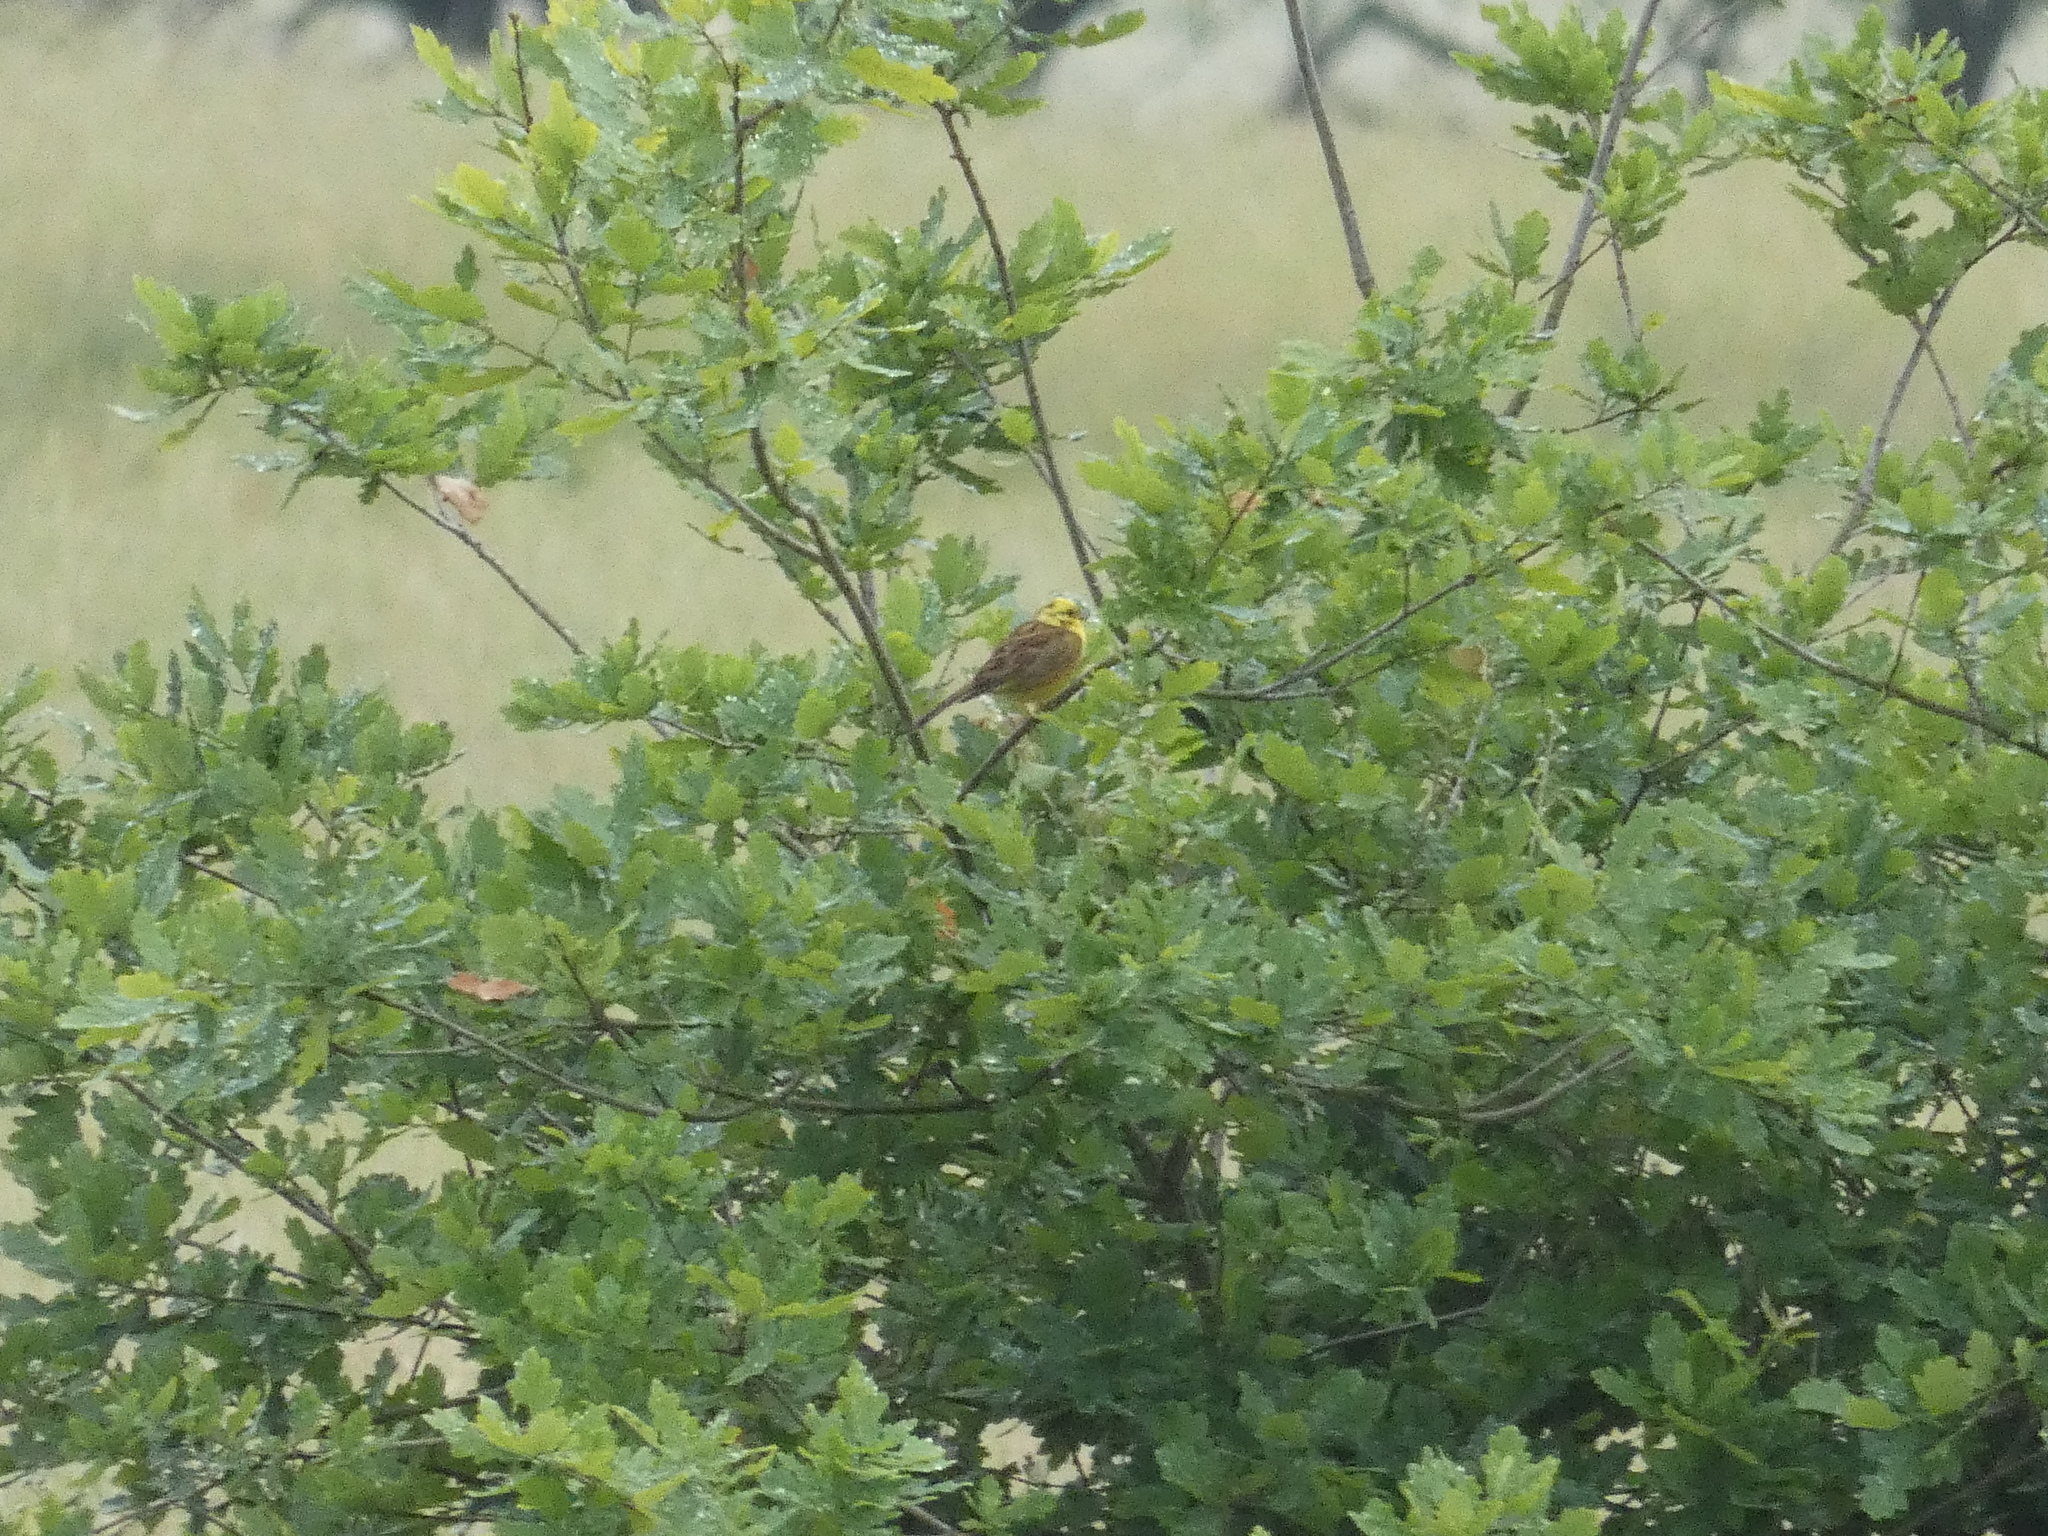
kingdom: Animalia
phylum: Chordata
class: Aves
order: Passeriformes
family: Emberizidae
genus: Emberiza
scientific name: Emberiza citrinella
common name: Yellowhammer
